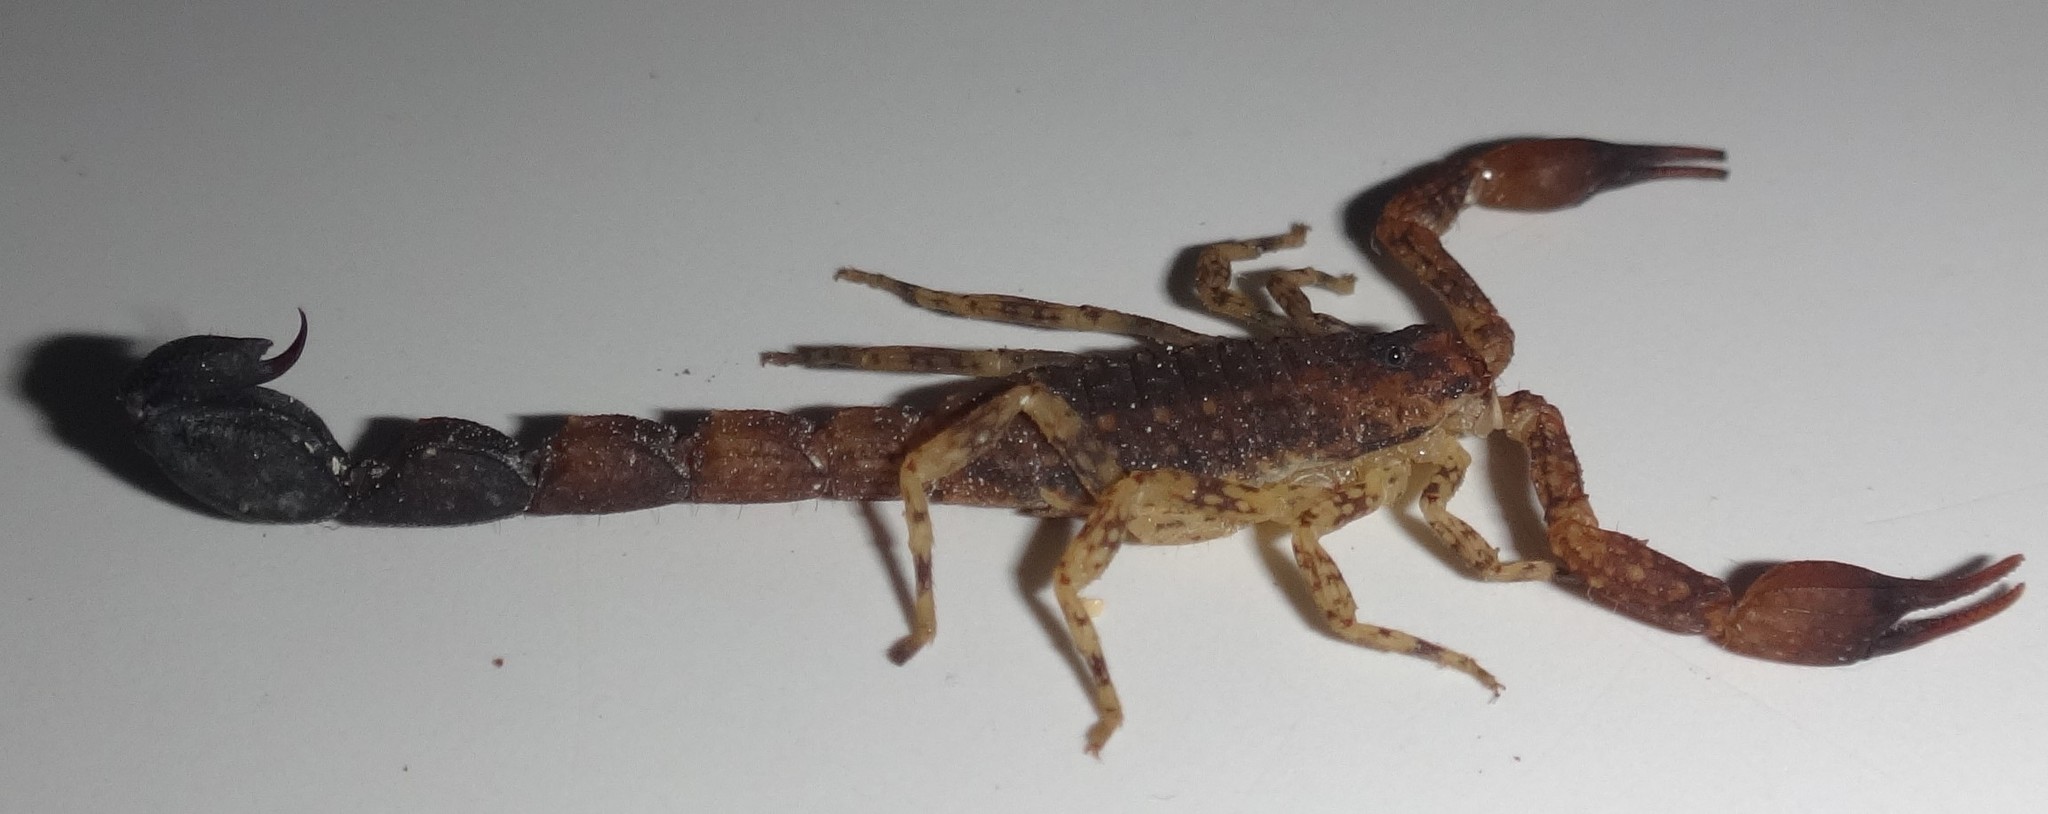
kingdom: Animalia
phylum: Arthropoda
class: Arachnida
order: Scorpiones
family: Buthidae
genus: Tityus
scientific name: Tityus clathratus
